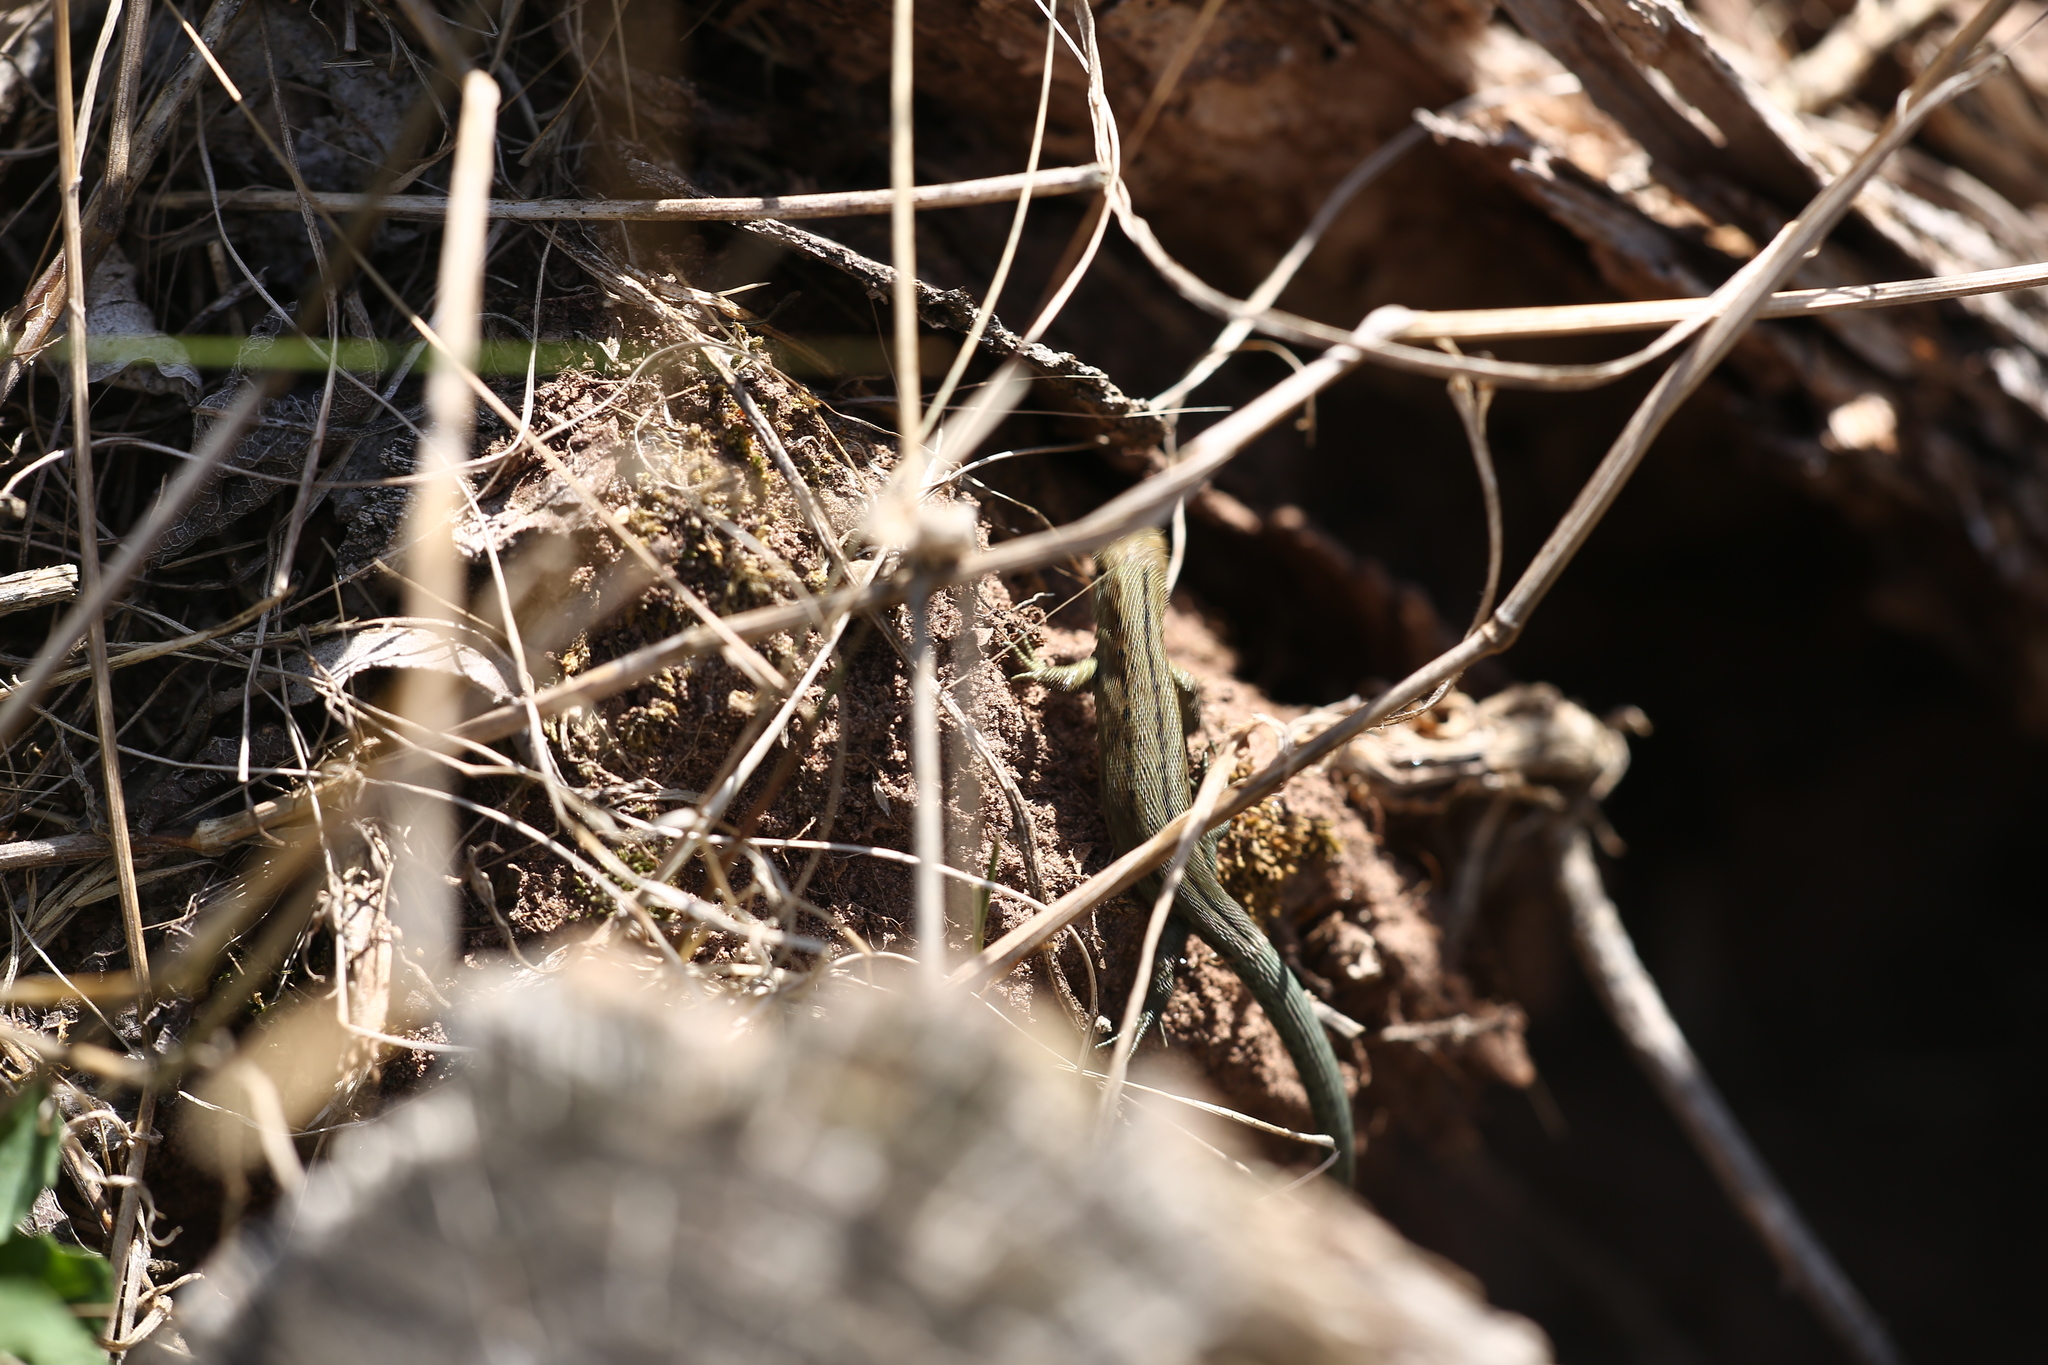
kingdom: Animalia
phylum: Chordata
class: Squamata
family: Lacertidae
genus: Zootoca
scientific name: Zootoca vivipara
